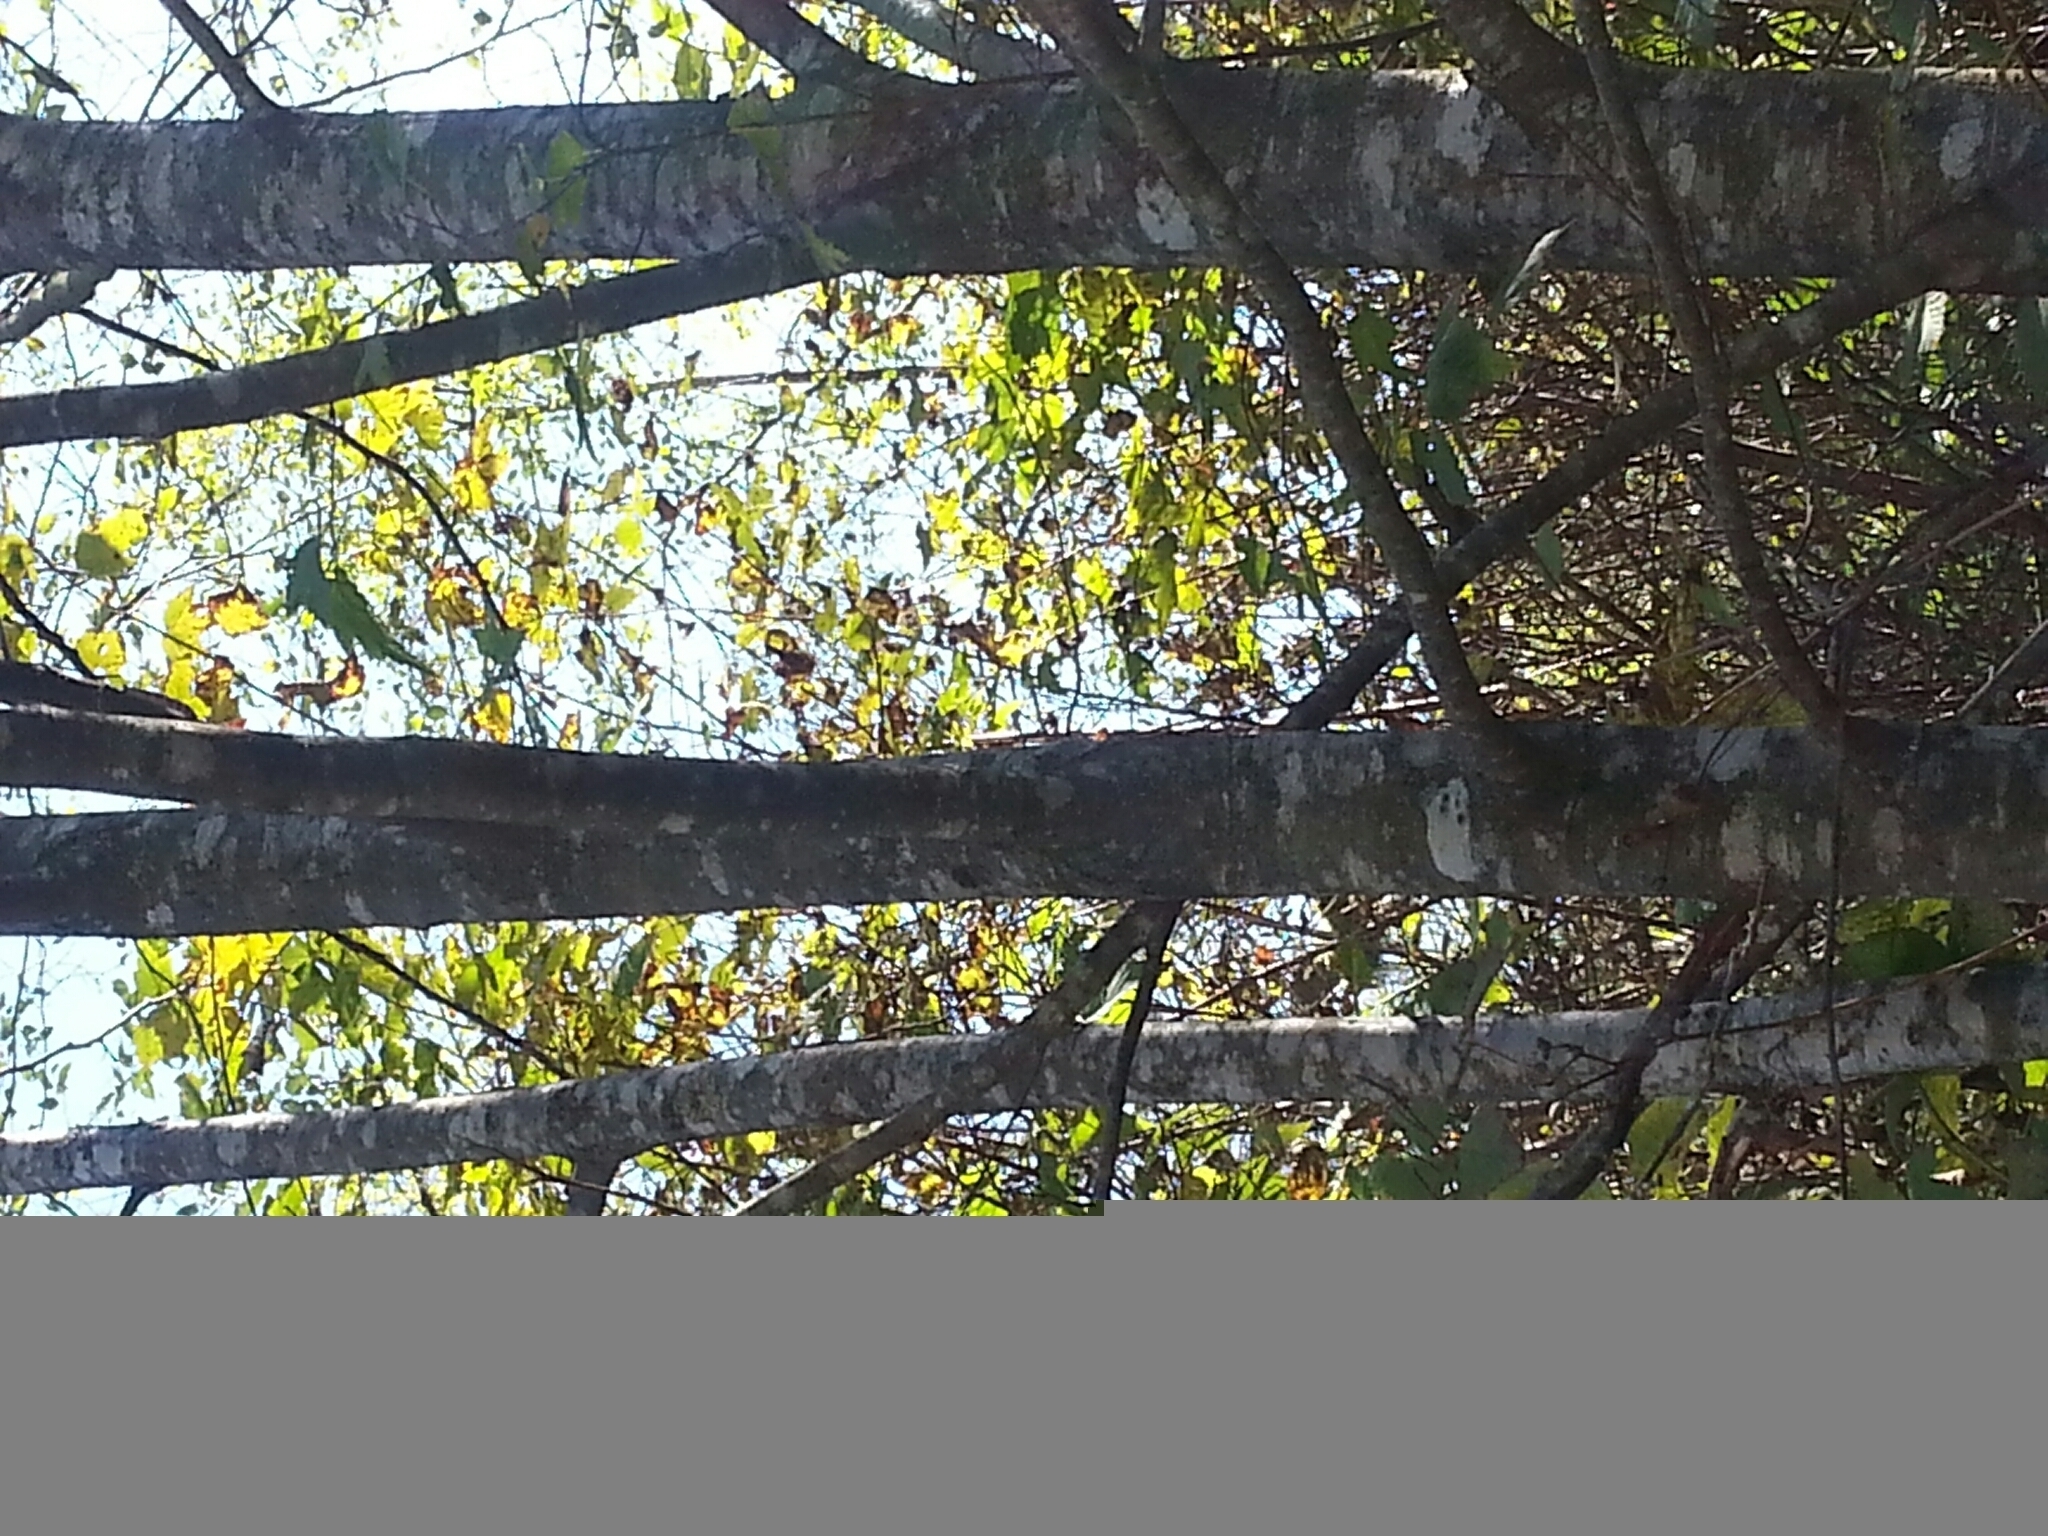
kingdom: Plantae
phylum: Tracheophyta
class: Magnoliopsida
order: Fagales
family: Betulaceae
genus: Alnus
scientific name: Alnus rubra
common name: Red alder
